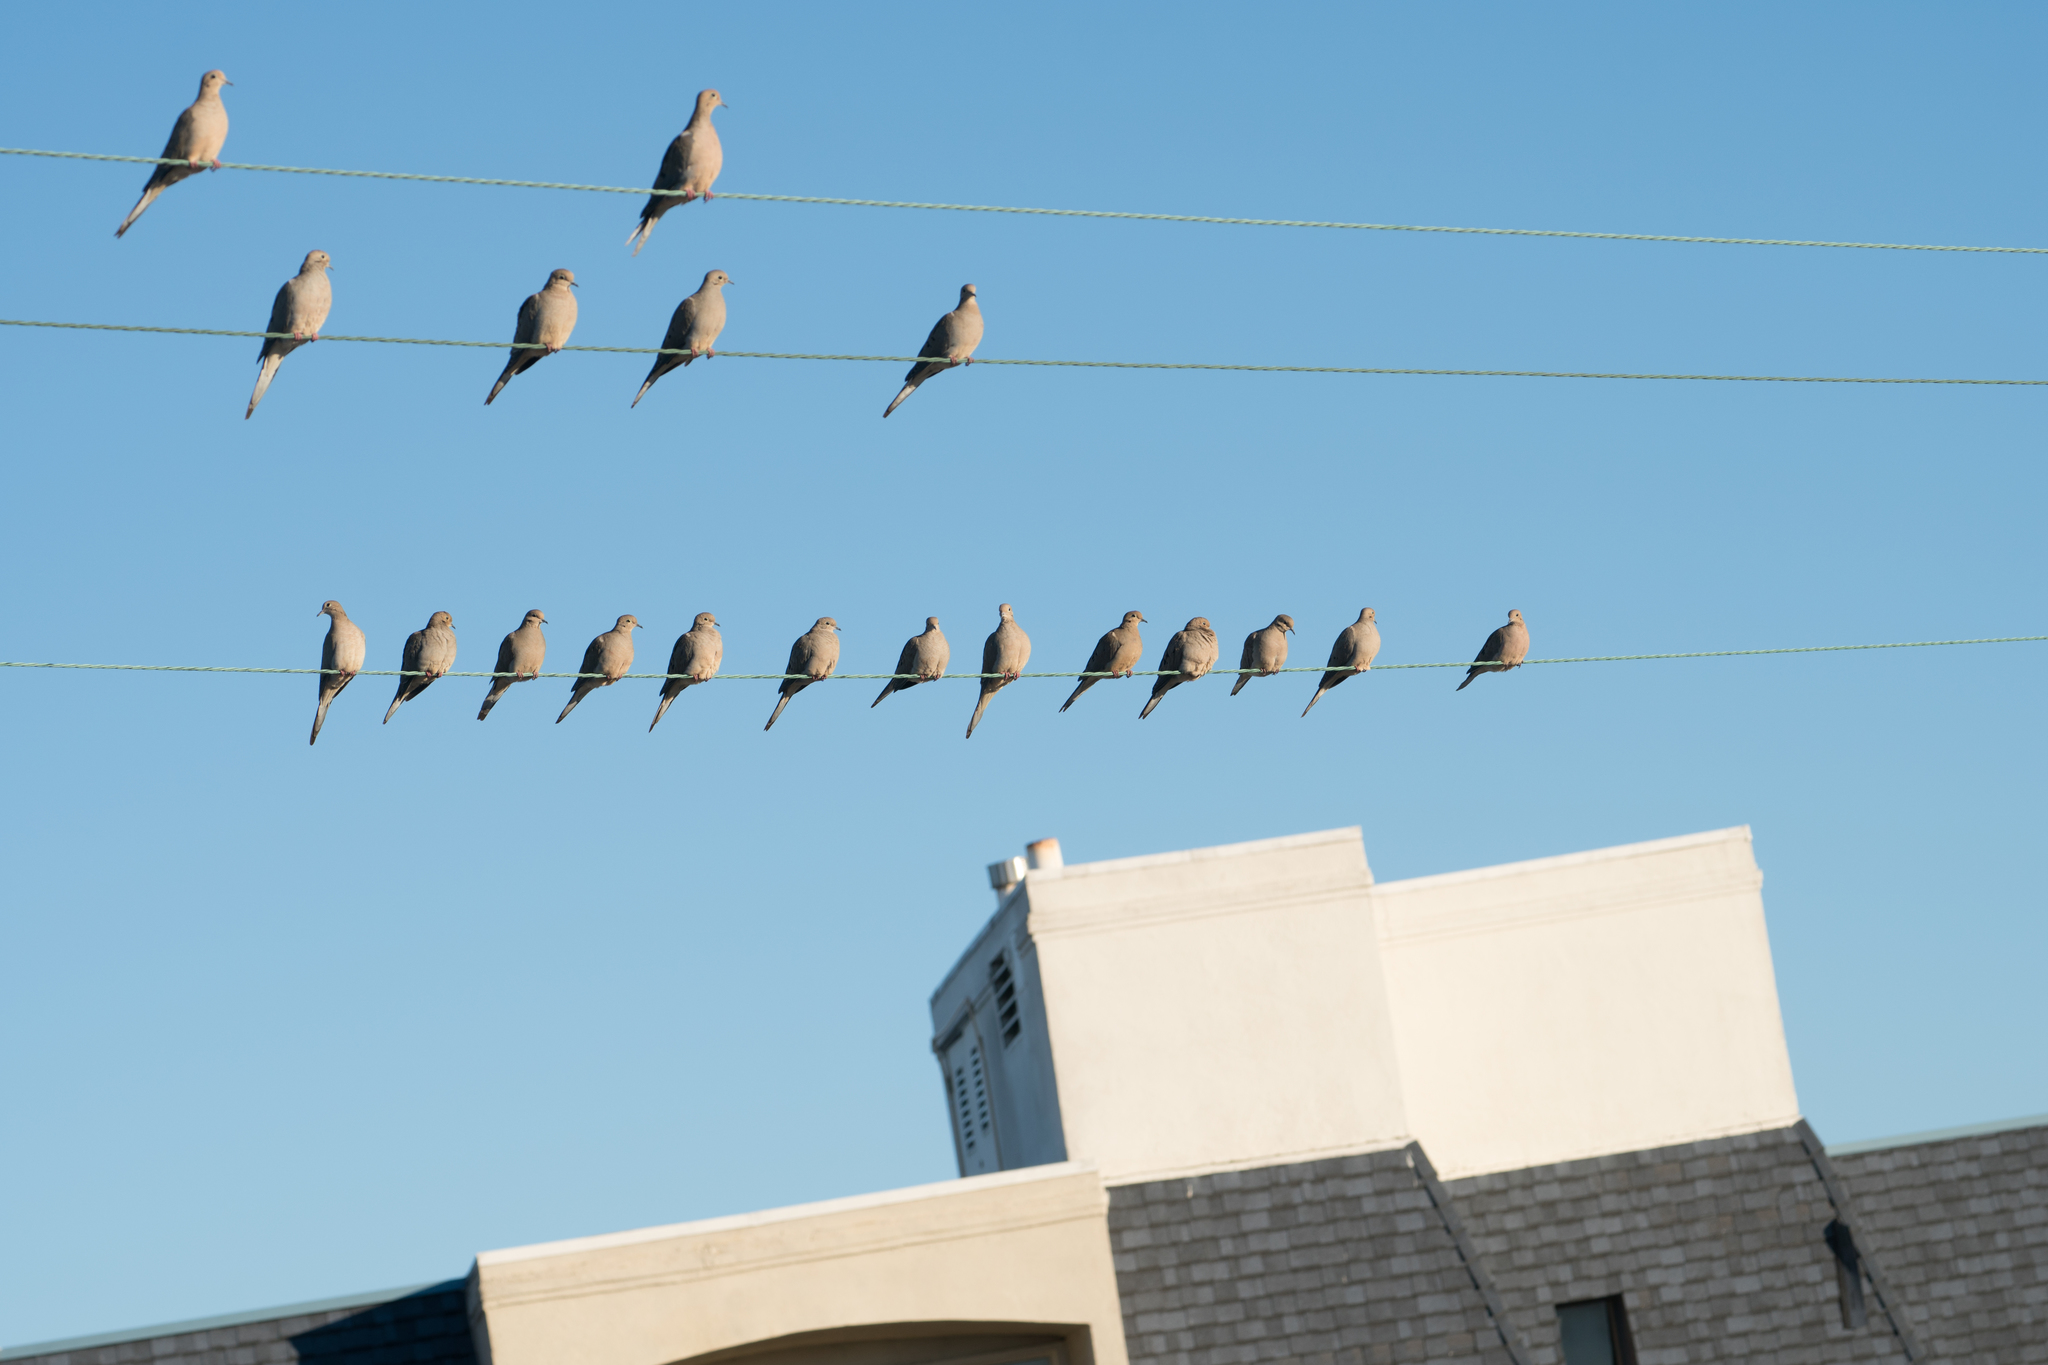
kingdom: Animalia
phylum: Chordata
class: Aves
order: Columbiformes
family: Columbidae
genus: Zenaida
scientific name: Zenaida macroura
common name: Mourning dove
